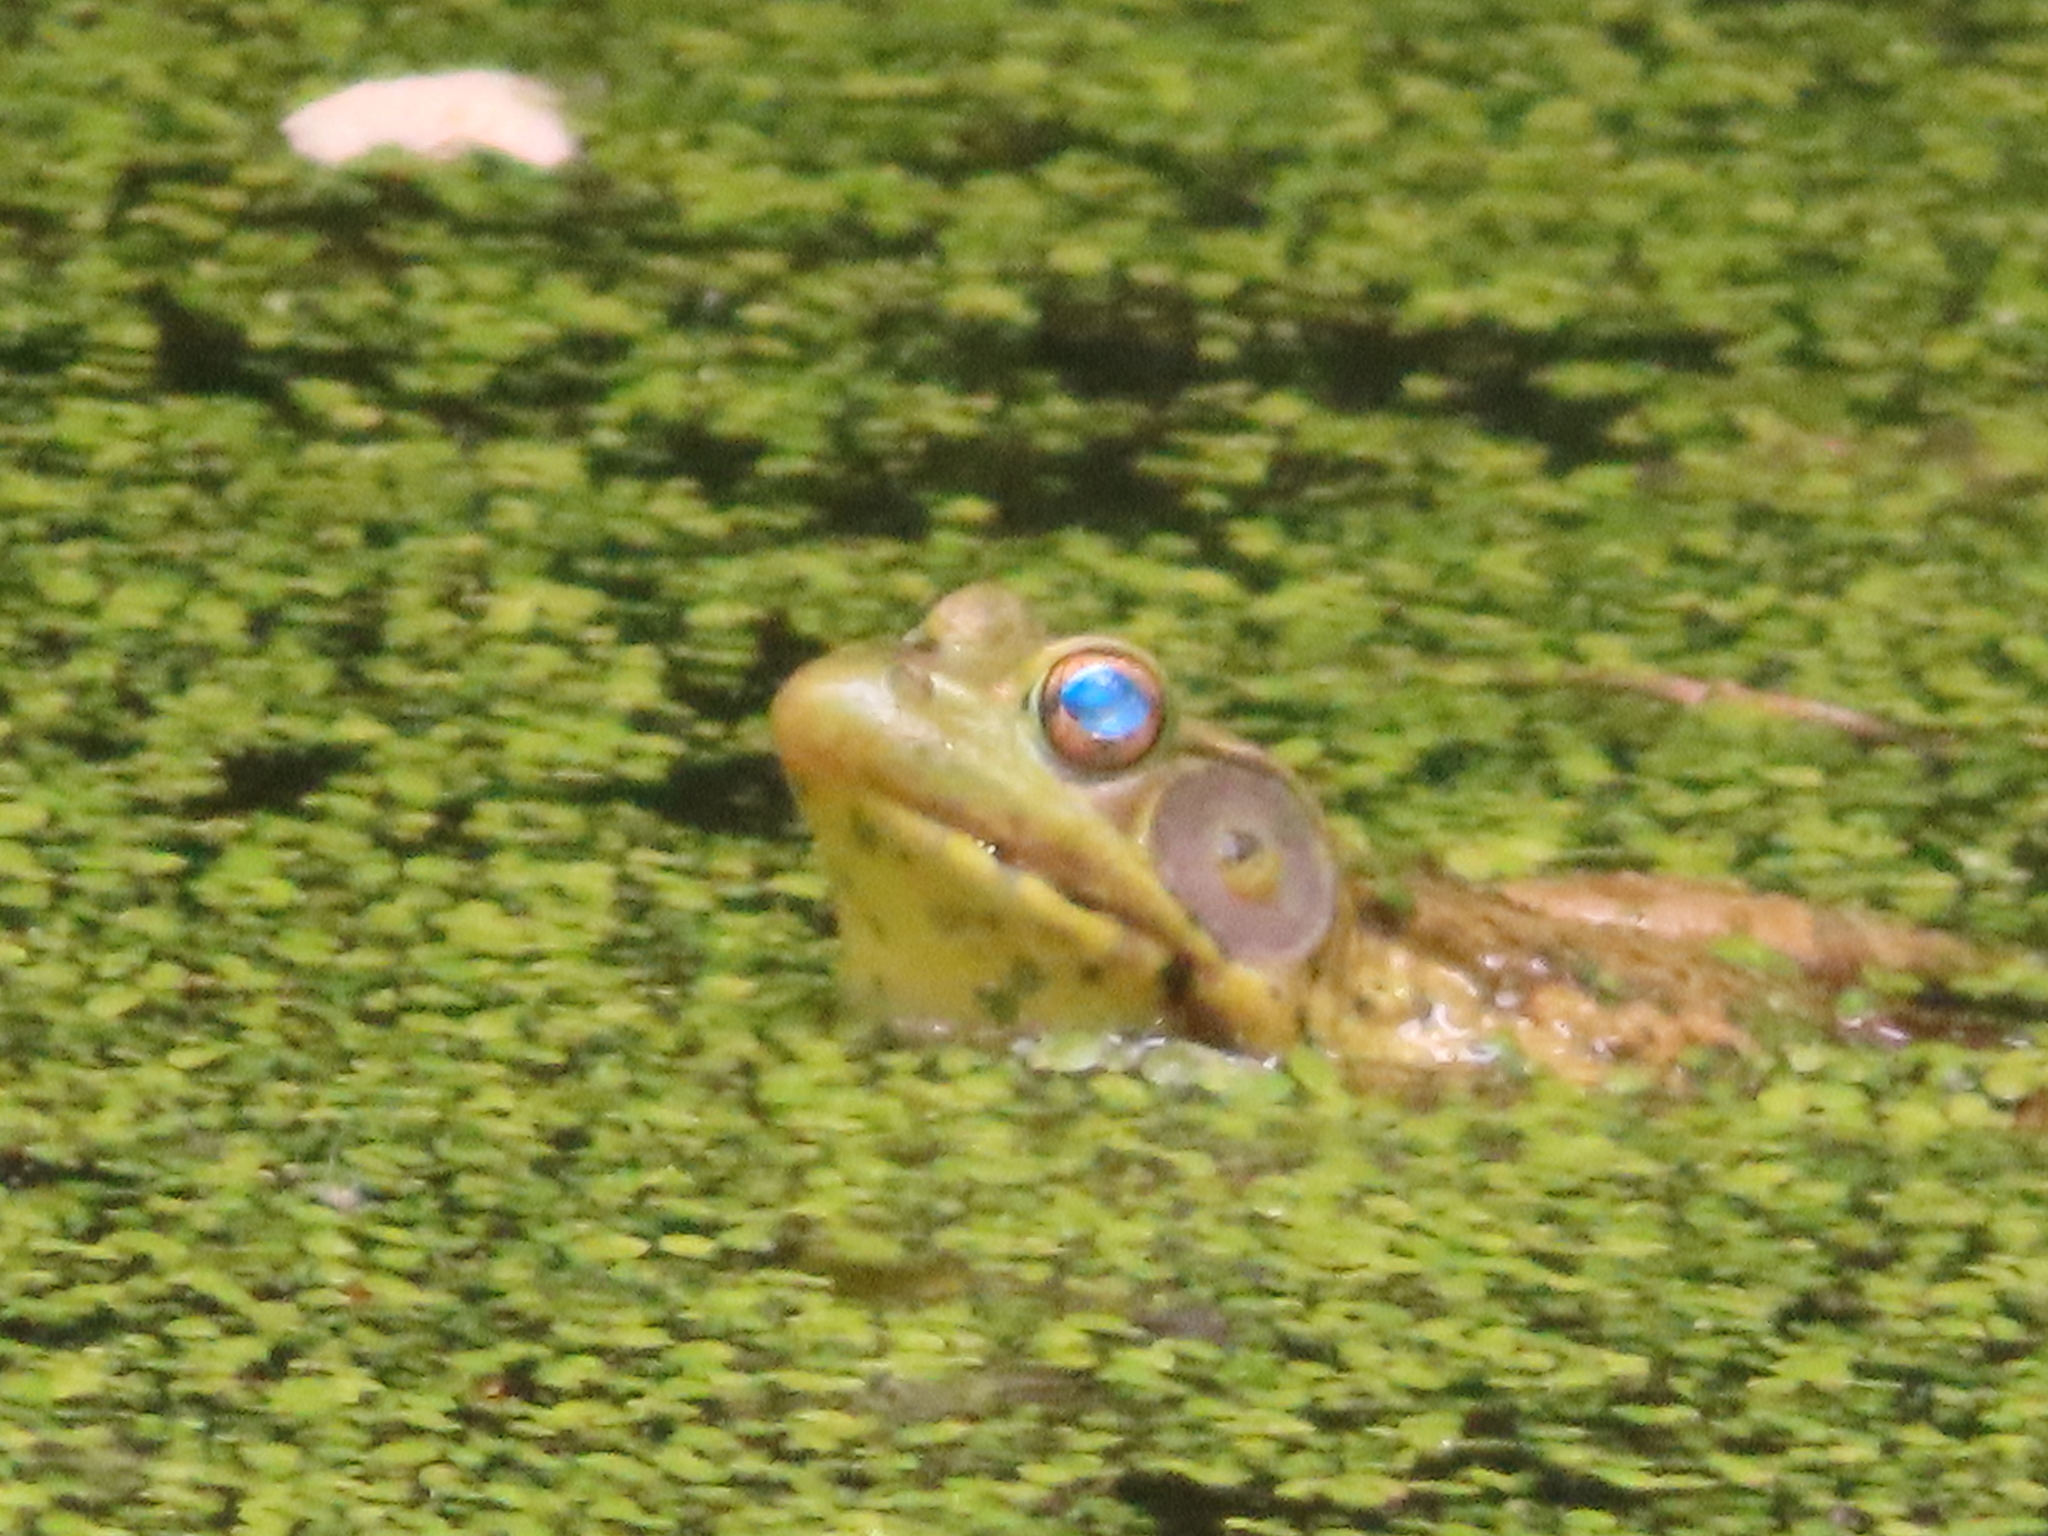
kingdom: Animalia
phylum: Chordata
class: Amphibia
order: Anura
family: Ranidae
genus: Lithobates
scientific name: Lithobates clamitans
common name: Green frog
